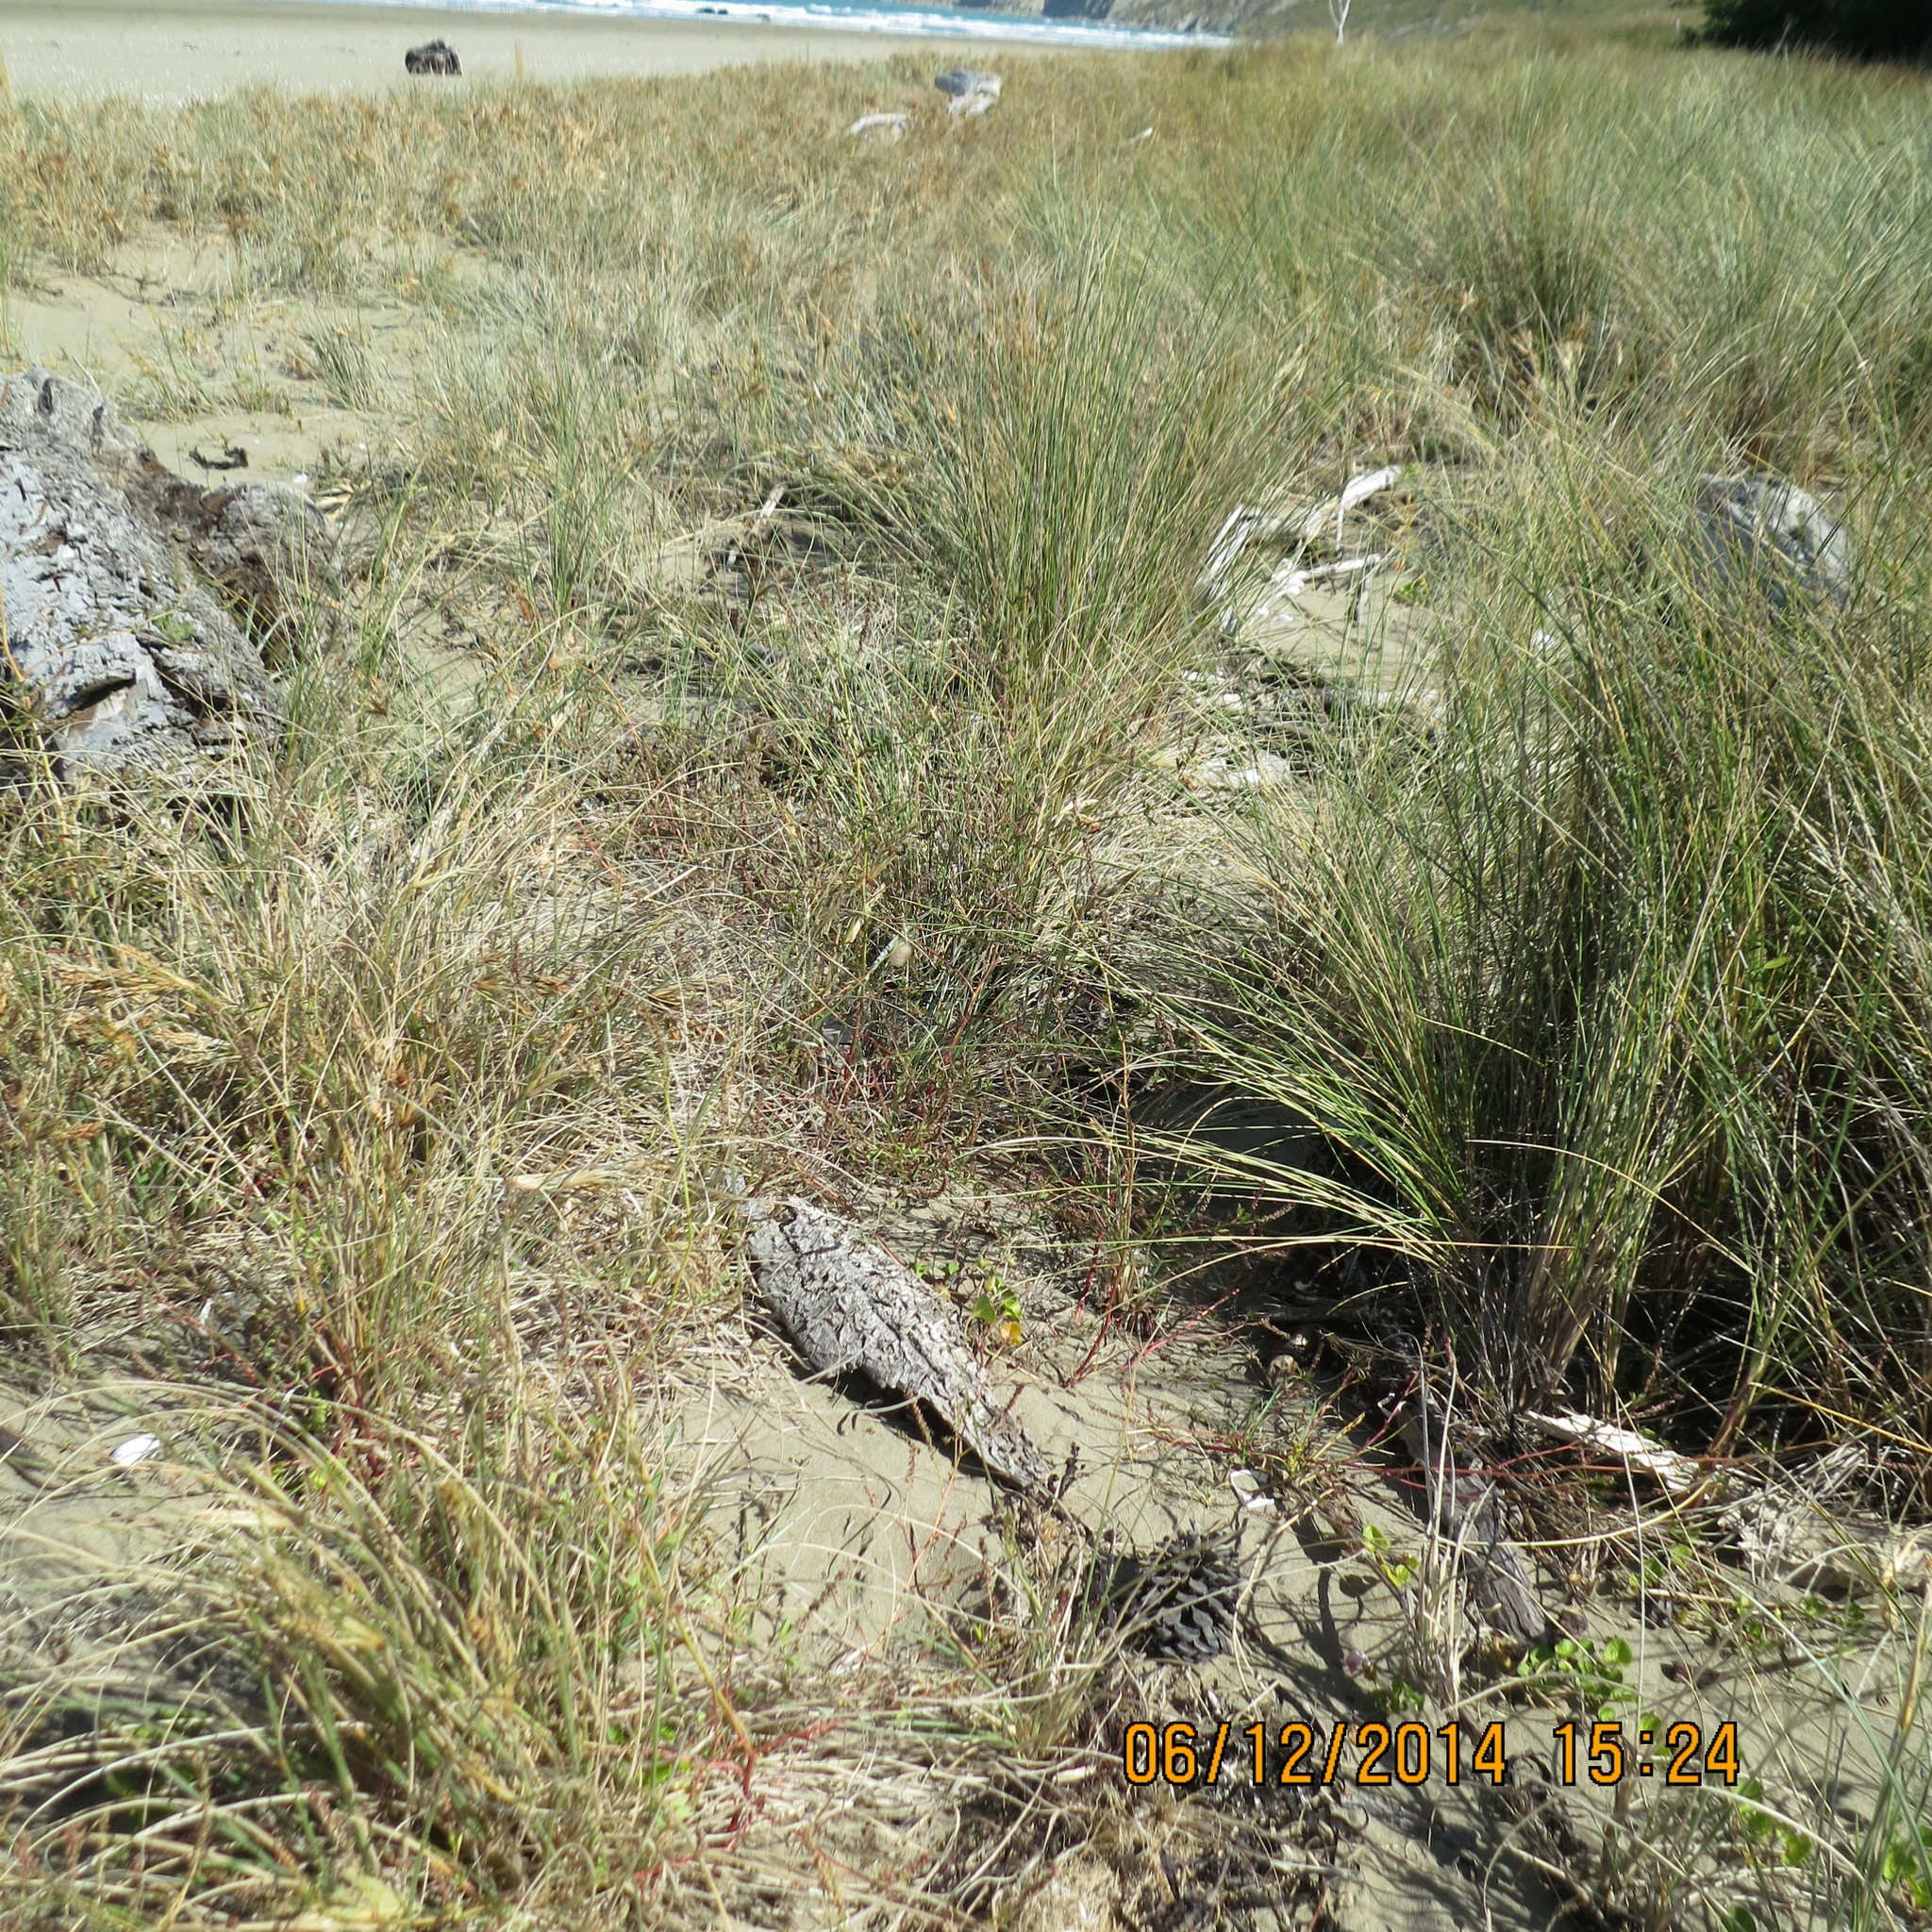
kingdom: Animalia
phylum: Arthropoda
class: Arachnida
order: Araneae
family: Theridiidae
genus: Latrodectus
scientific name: Latrodectus katipo
